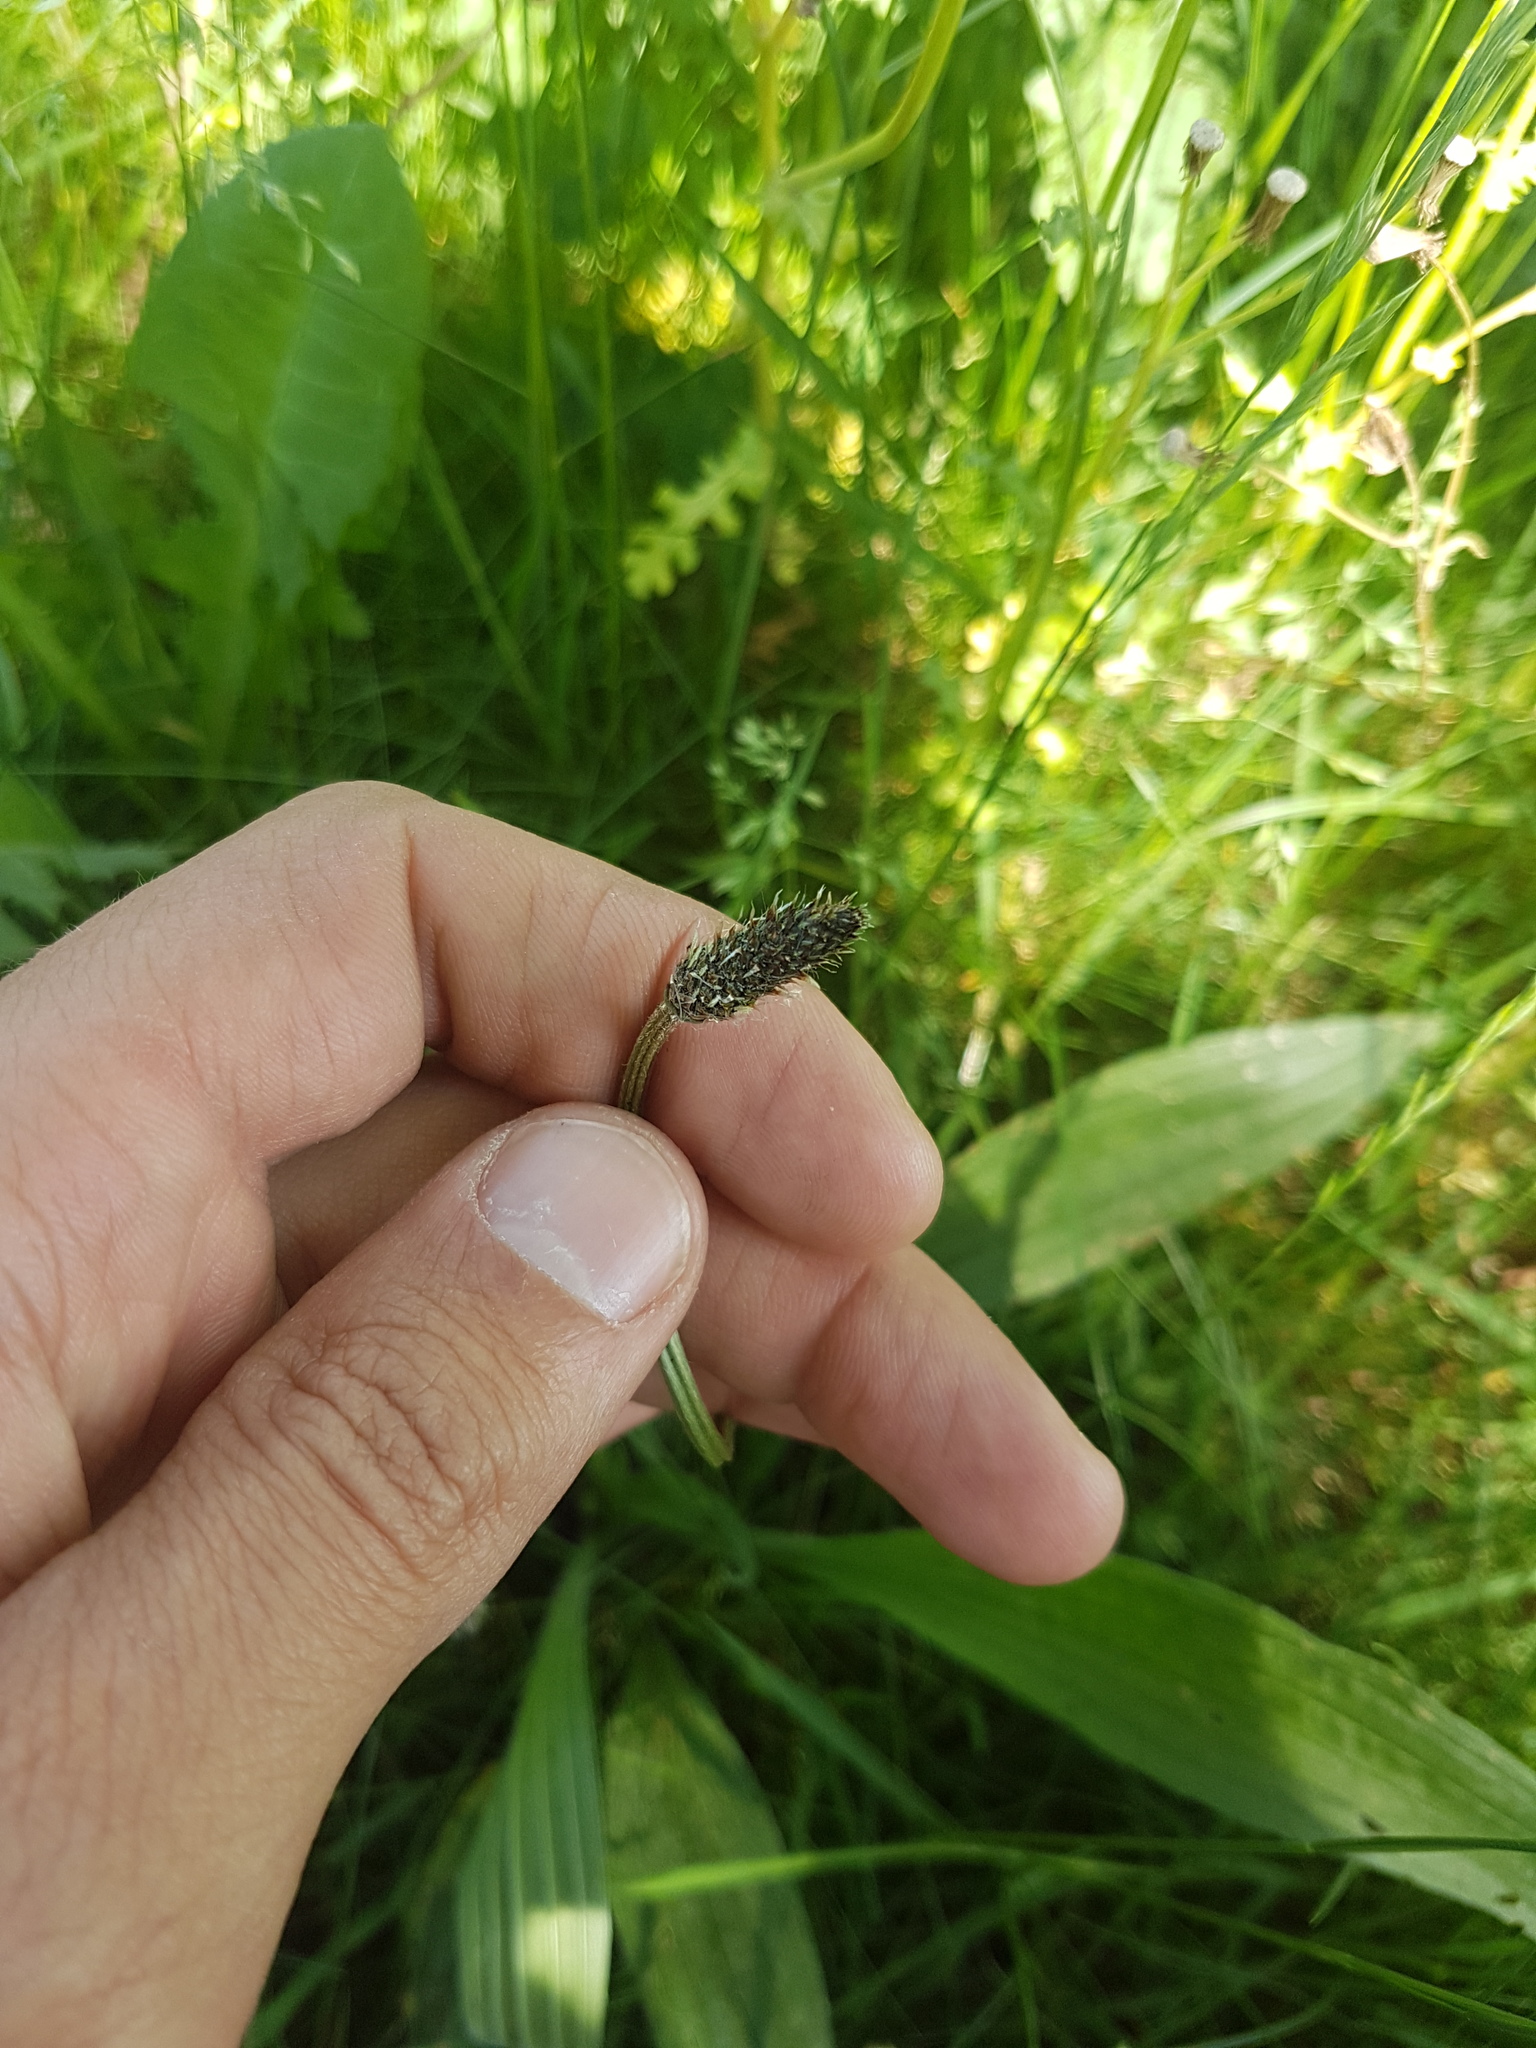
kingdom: Plantae
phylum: Tracheophyta
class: Magnoliopsida
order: Lamiales
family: Plantaginaceae
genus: Plantago
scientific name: Plantago lanceolata
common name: Ribwort plantain
